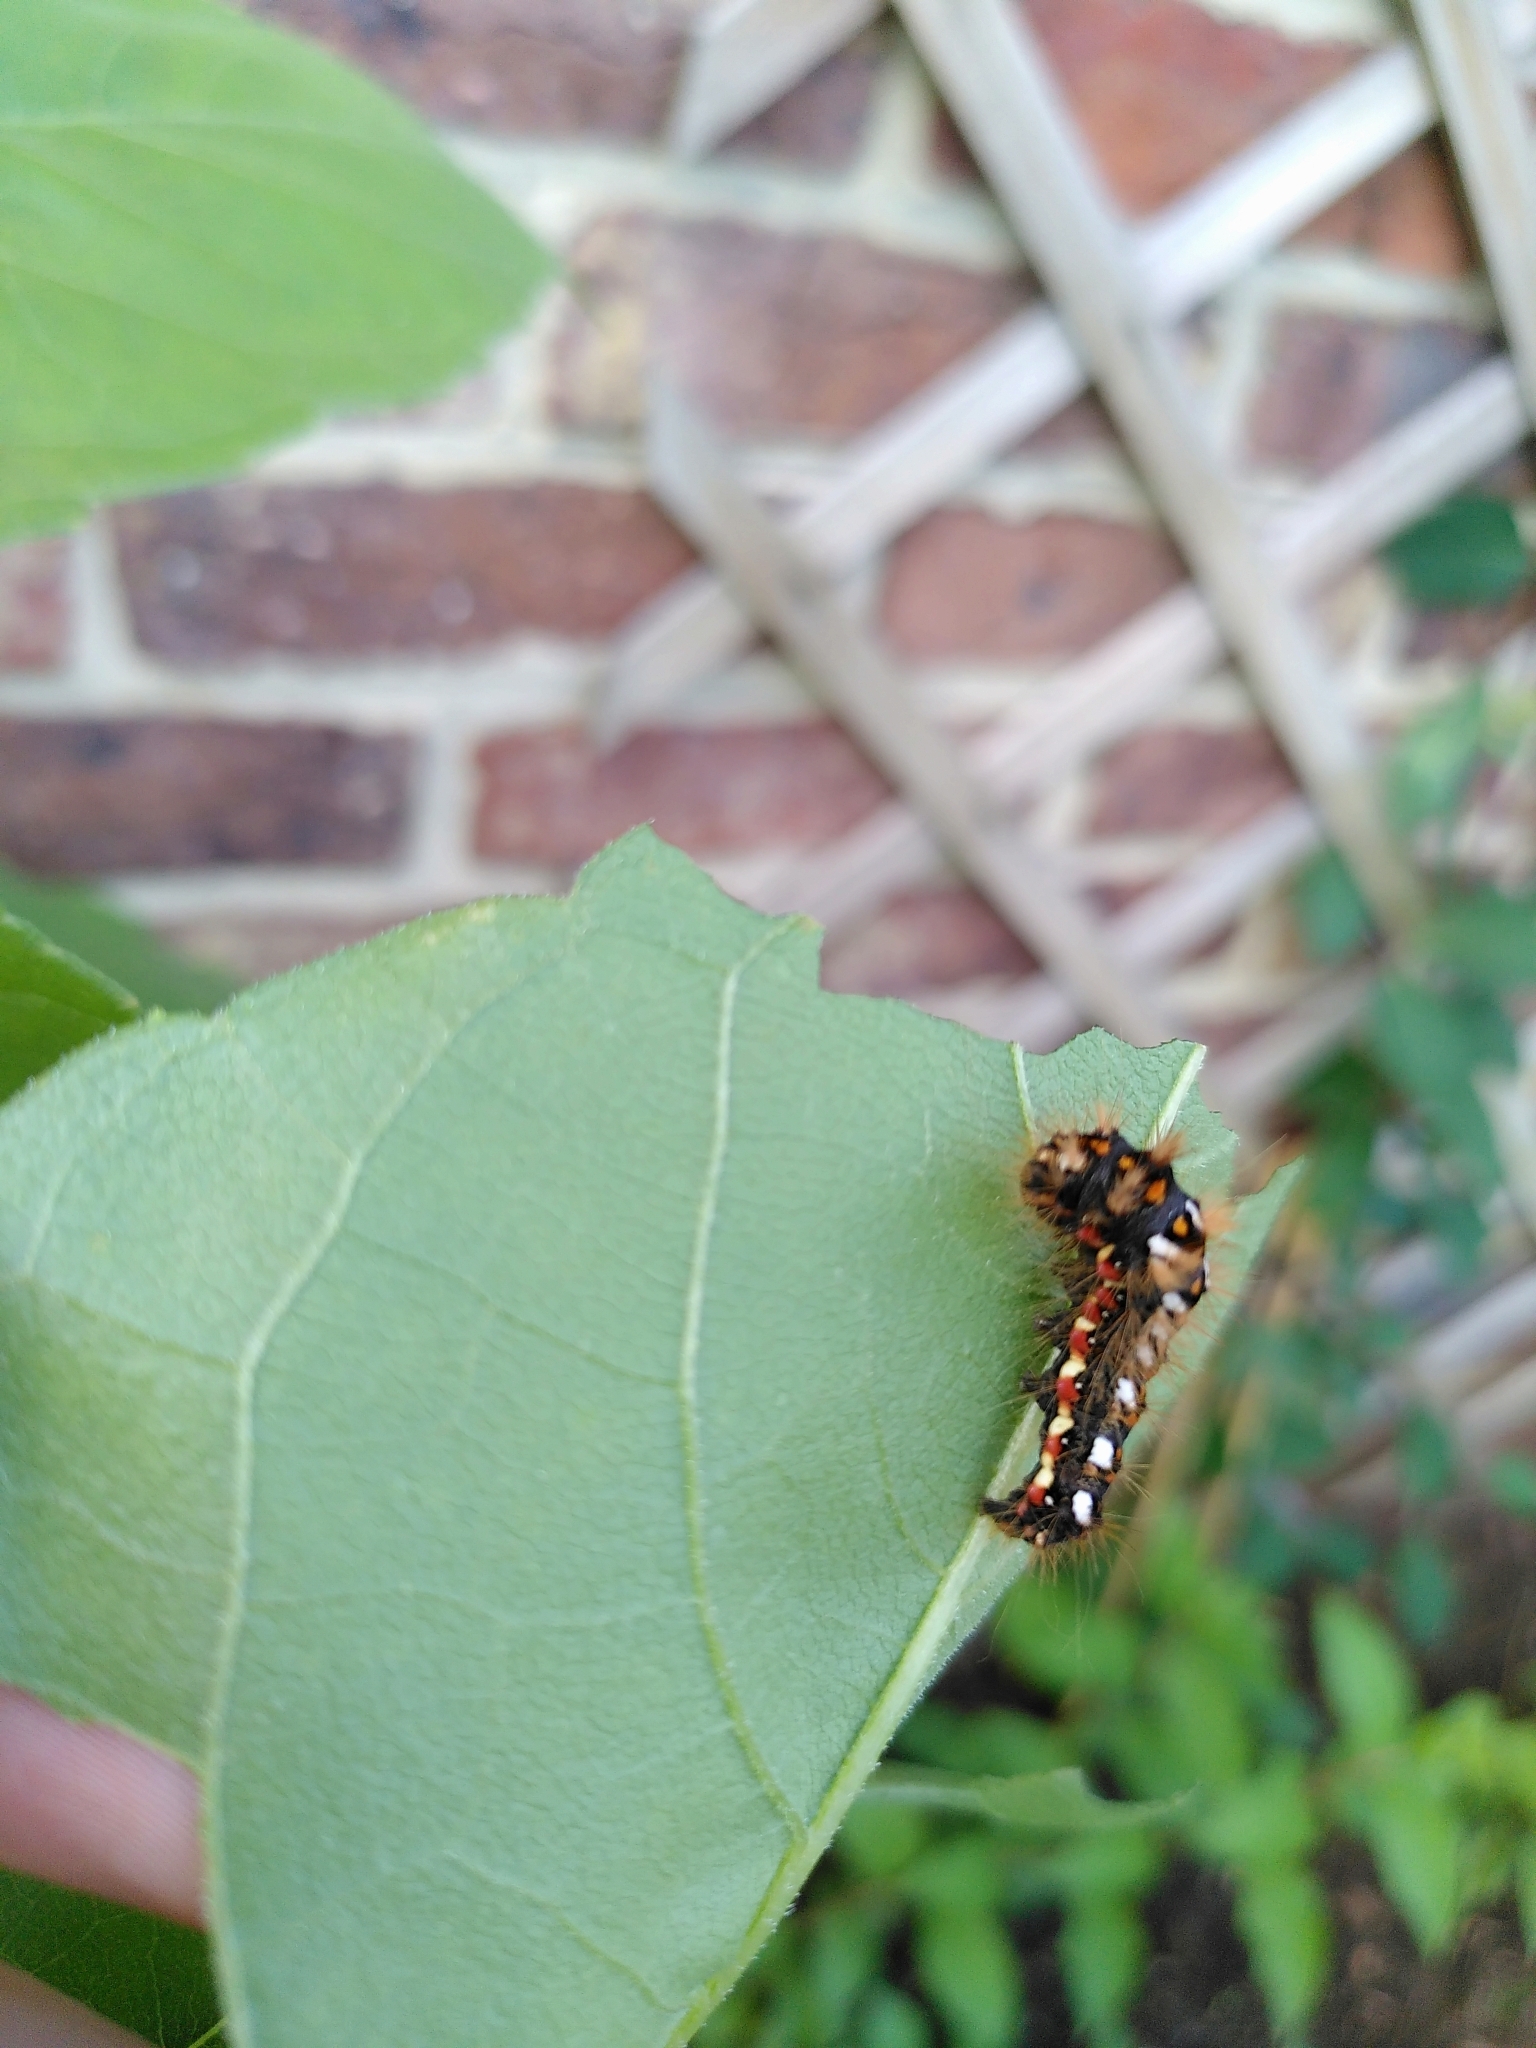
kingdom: Animalia
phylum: Arthropoda
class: Insecta
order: Lepidoptera
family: Noctuidae
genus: Acronicta
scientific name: Acronicta rumicis
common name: Knot grass
